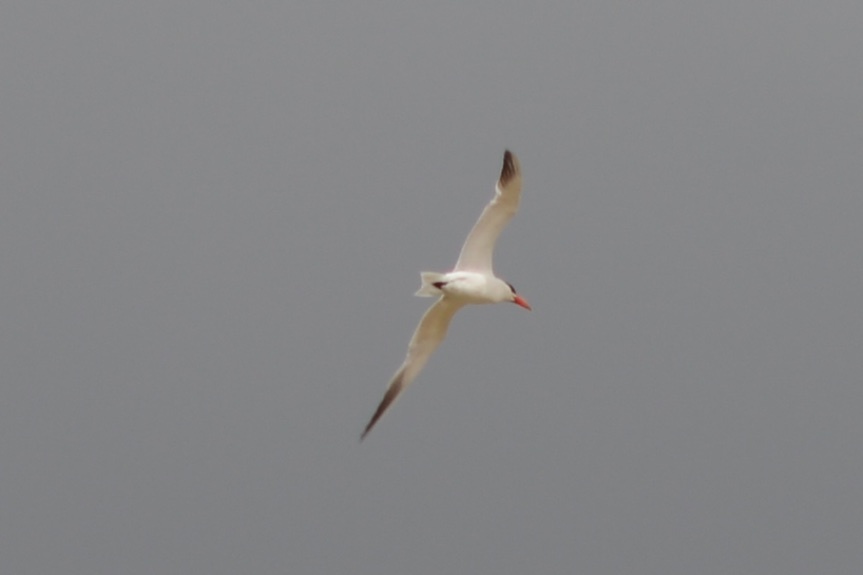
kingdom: Animalia
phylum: Chordata
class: Aves
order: Charadriiformes
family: Laridae
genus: Hydroprogne
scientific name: Hydroprogne caspia
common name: Caspian tern
